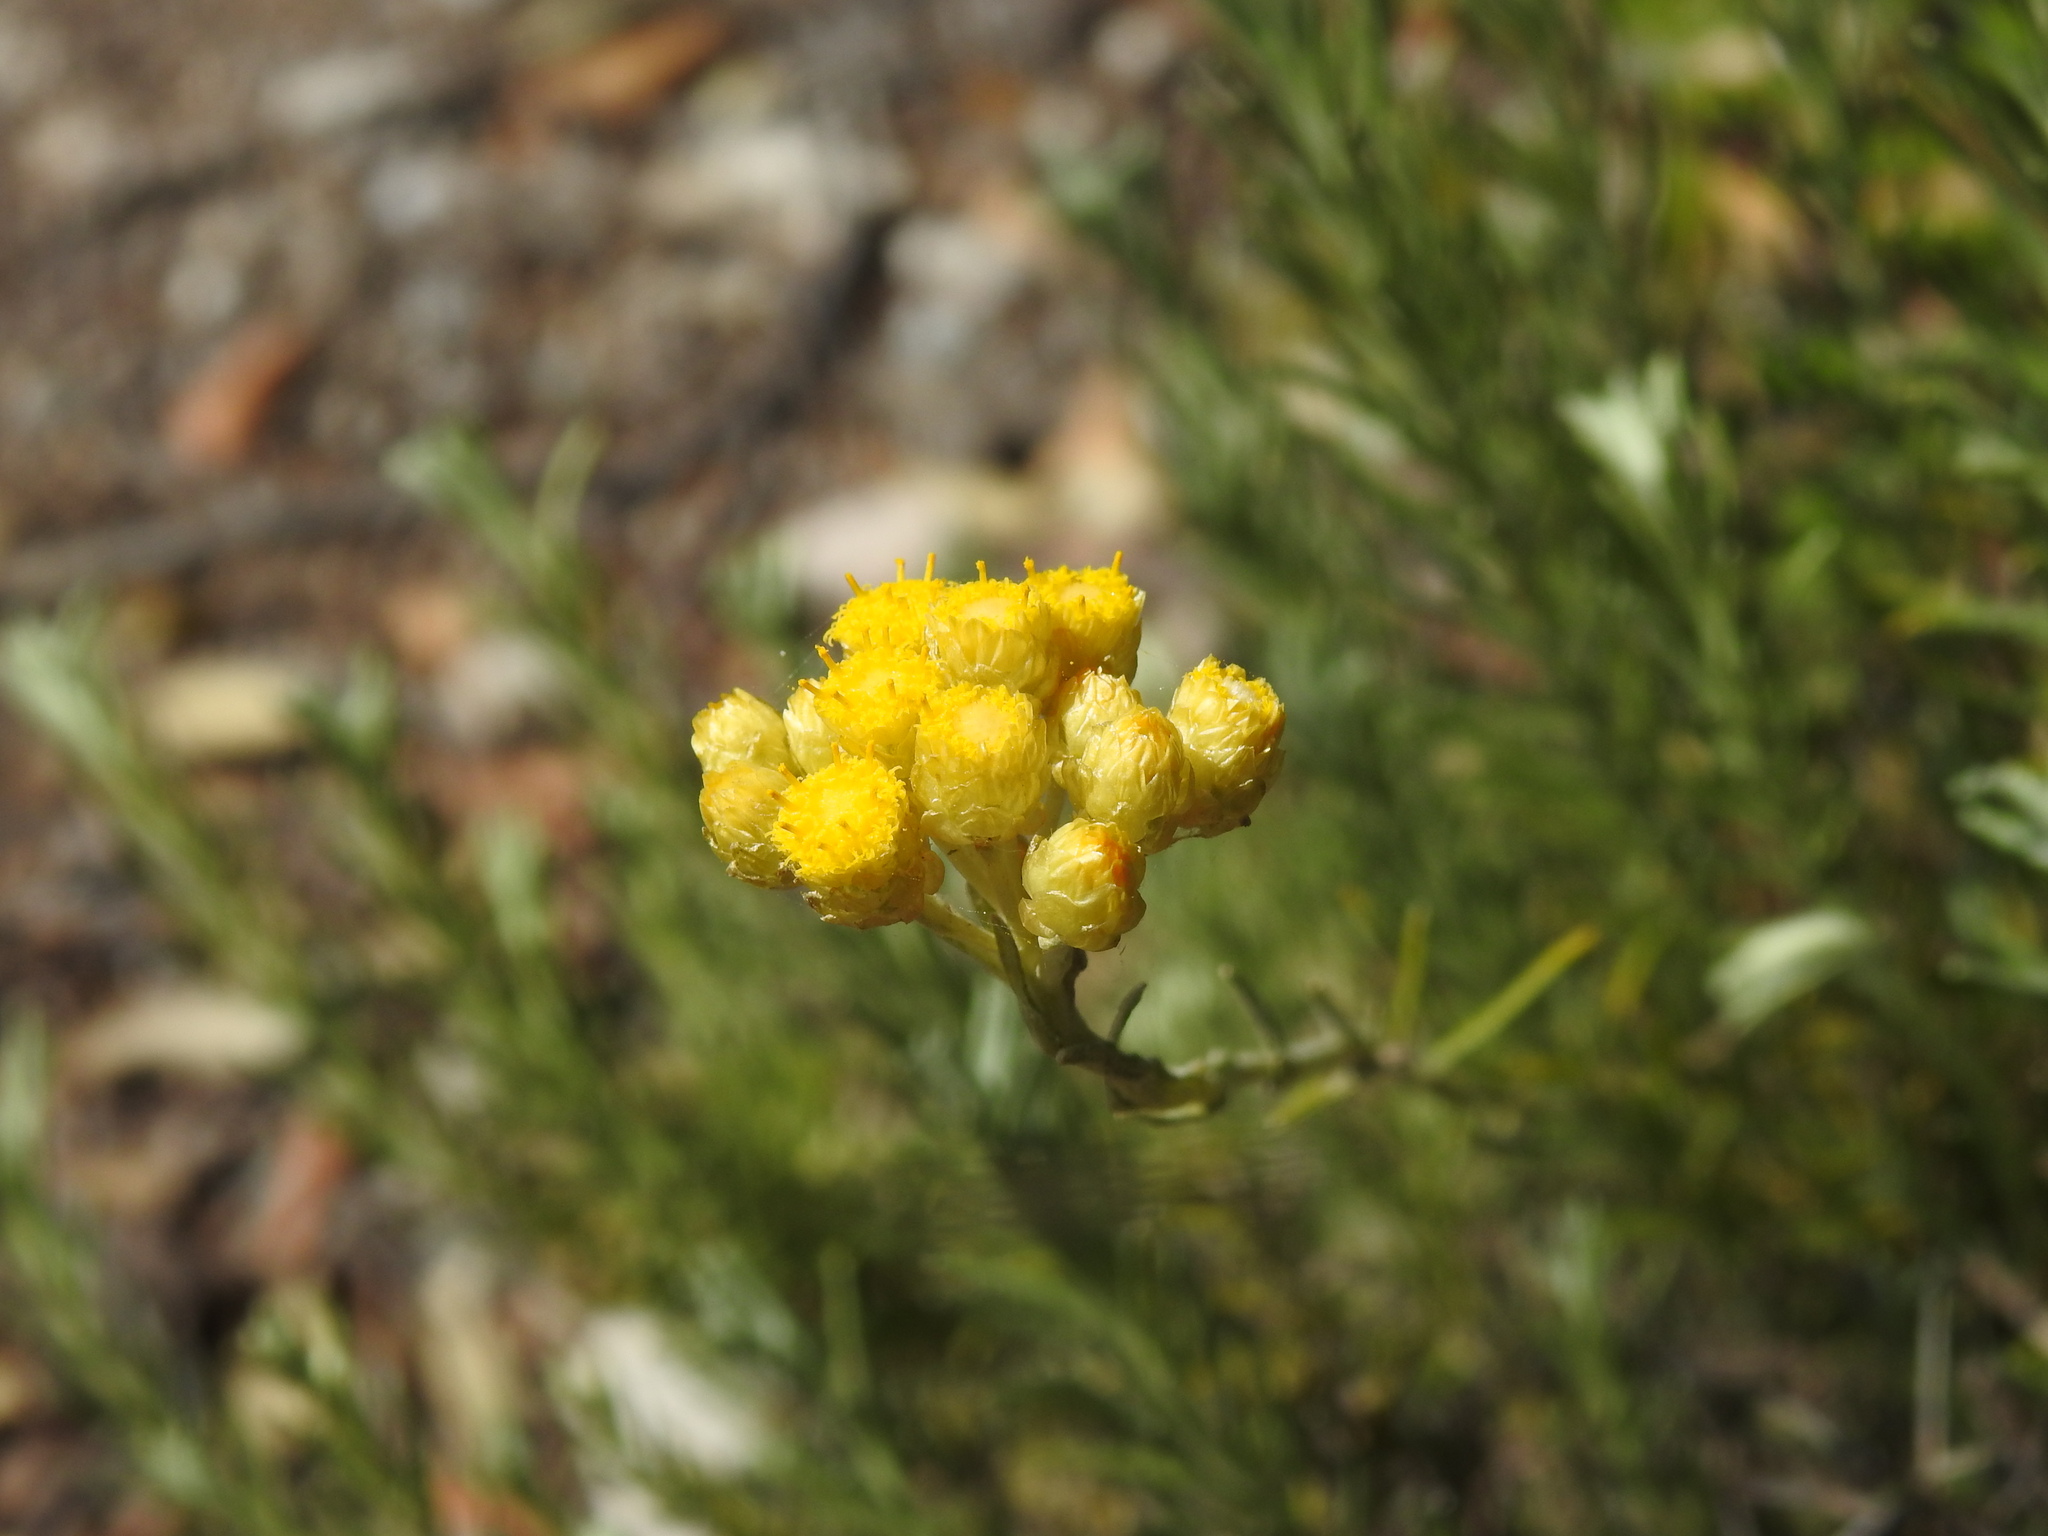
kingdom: Plantae
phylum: Tracheophyta
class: Magnoliopsida
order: Asterales
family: Asteraceae
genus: Helichrysum
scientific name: Helichrysum stoechas
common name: Goldilocks
